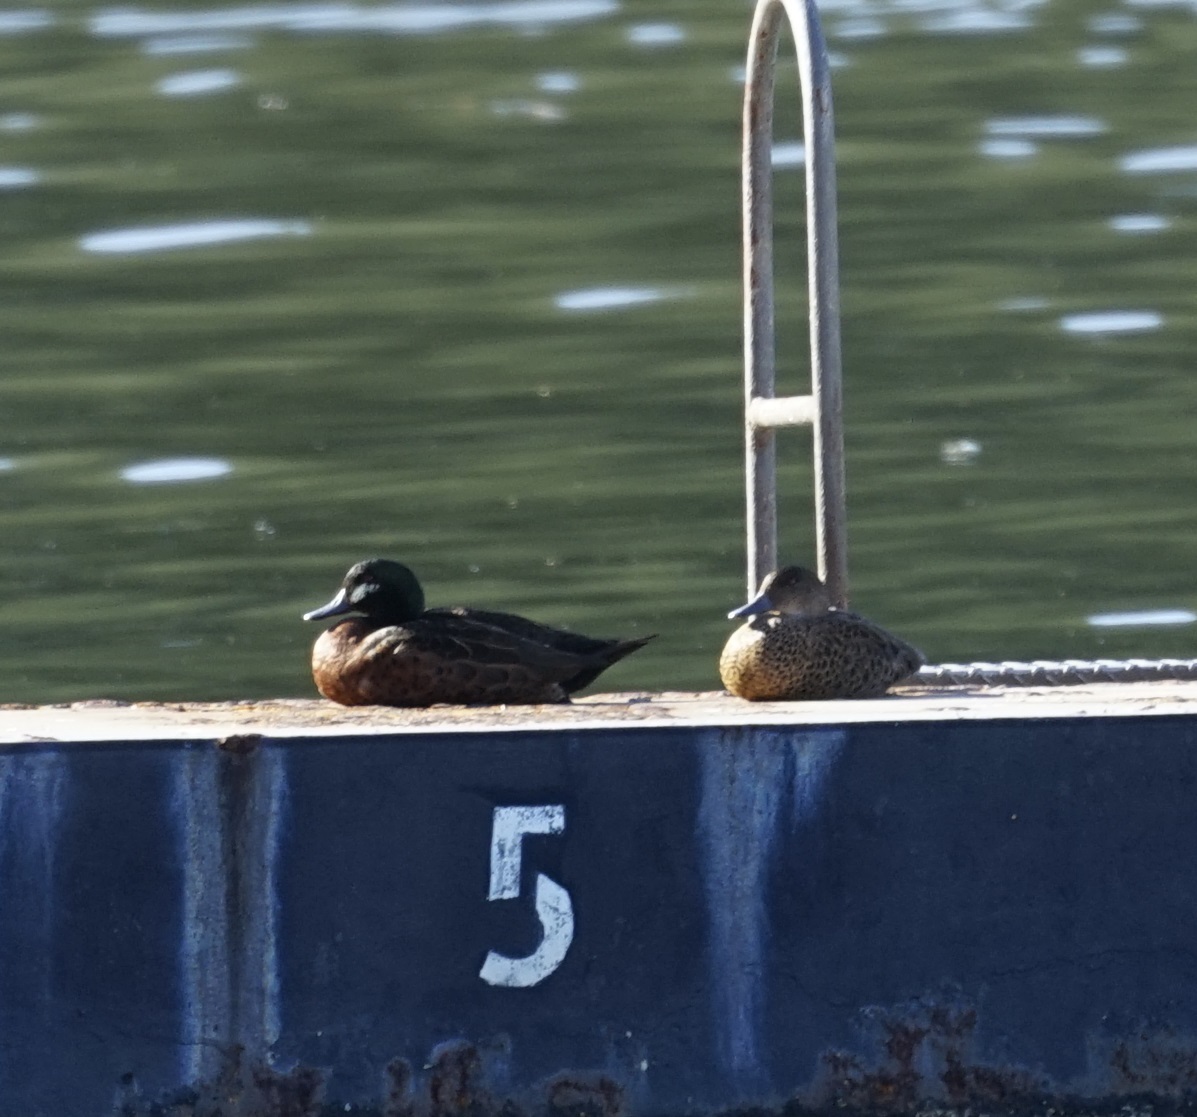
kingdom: Animalia
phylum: Chordata
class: Aves
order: Anseriformes
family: Anatidae
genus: Anas
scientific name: Anas castanea
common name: Chestnut teal
